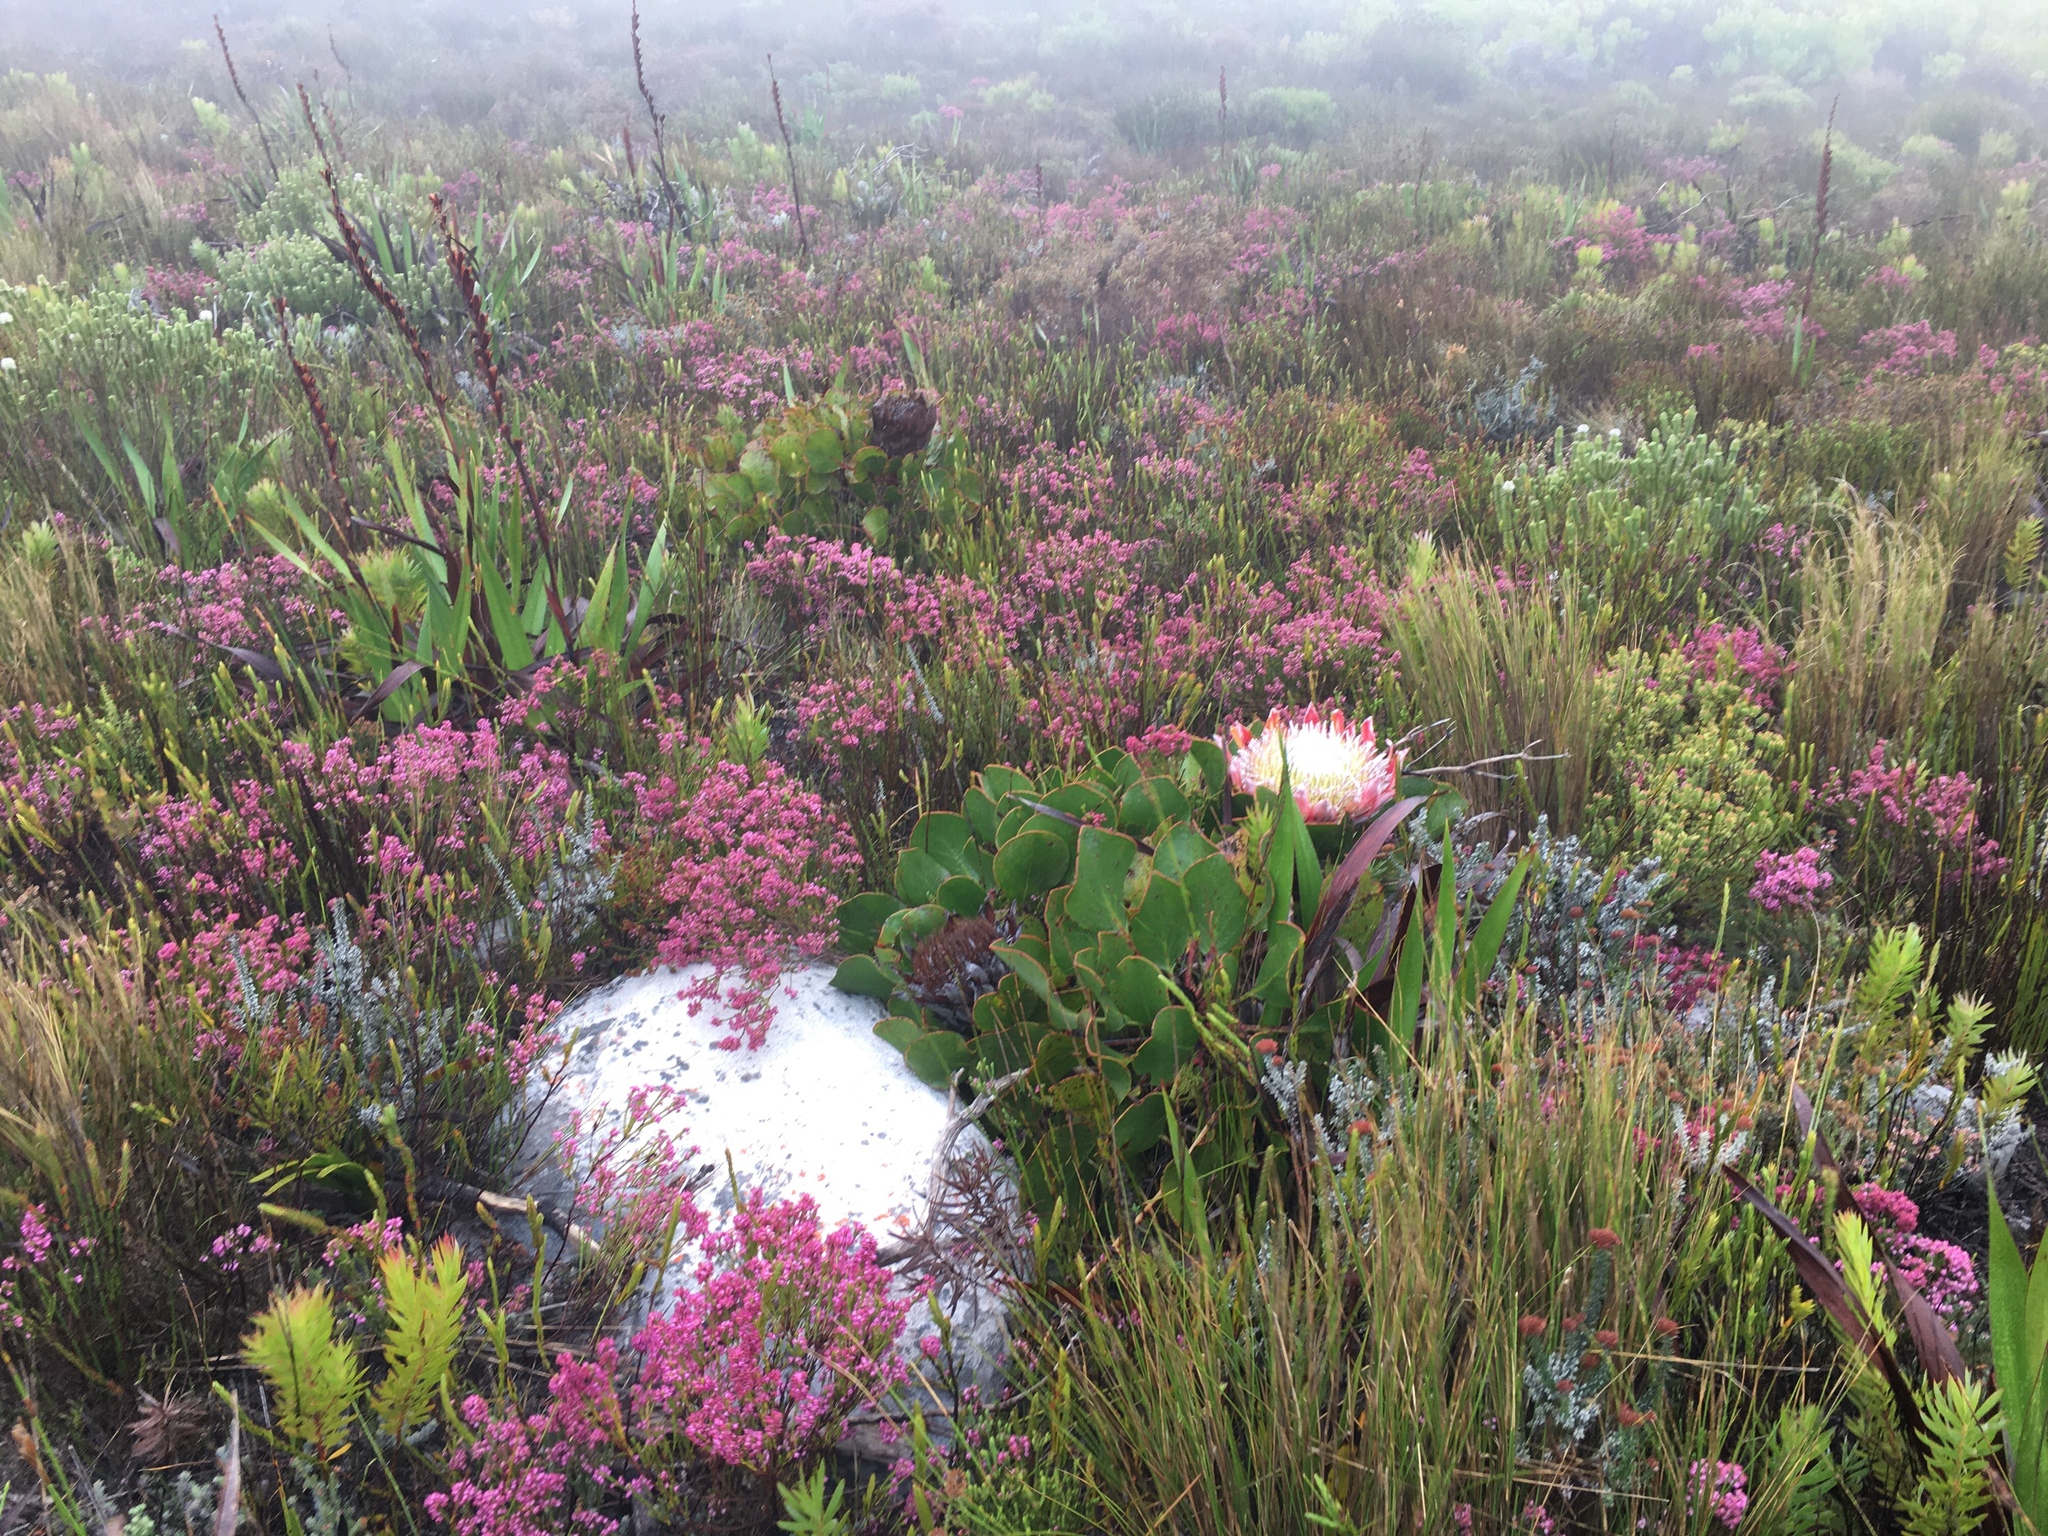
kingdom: Plantae
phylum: Tracheophyta
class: Magnoliopsida
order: Ericales
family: Ericaceae
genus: Erica
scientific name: Erica corifolia
